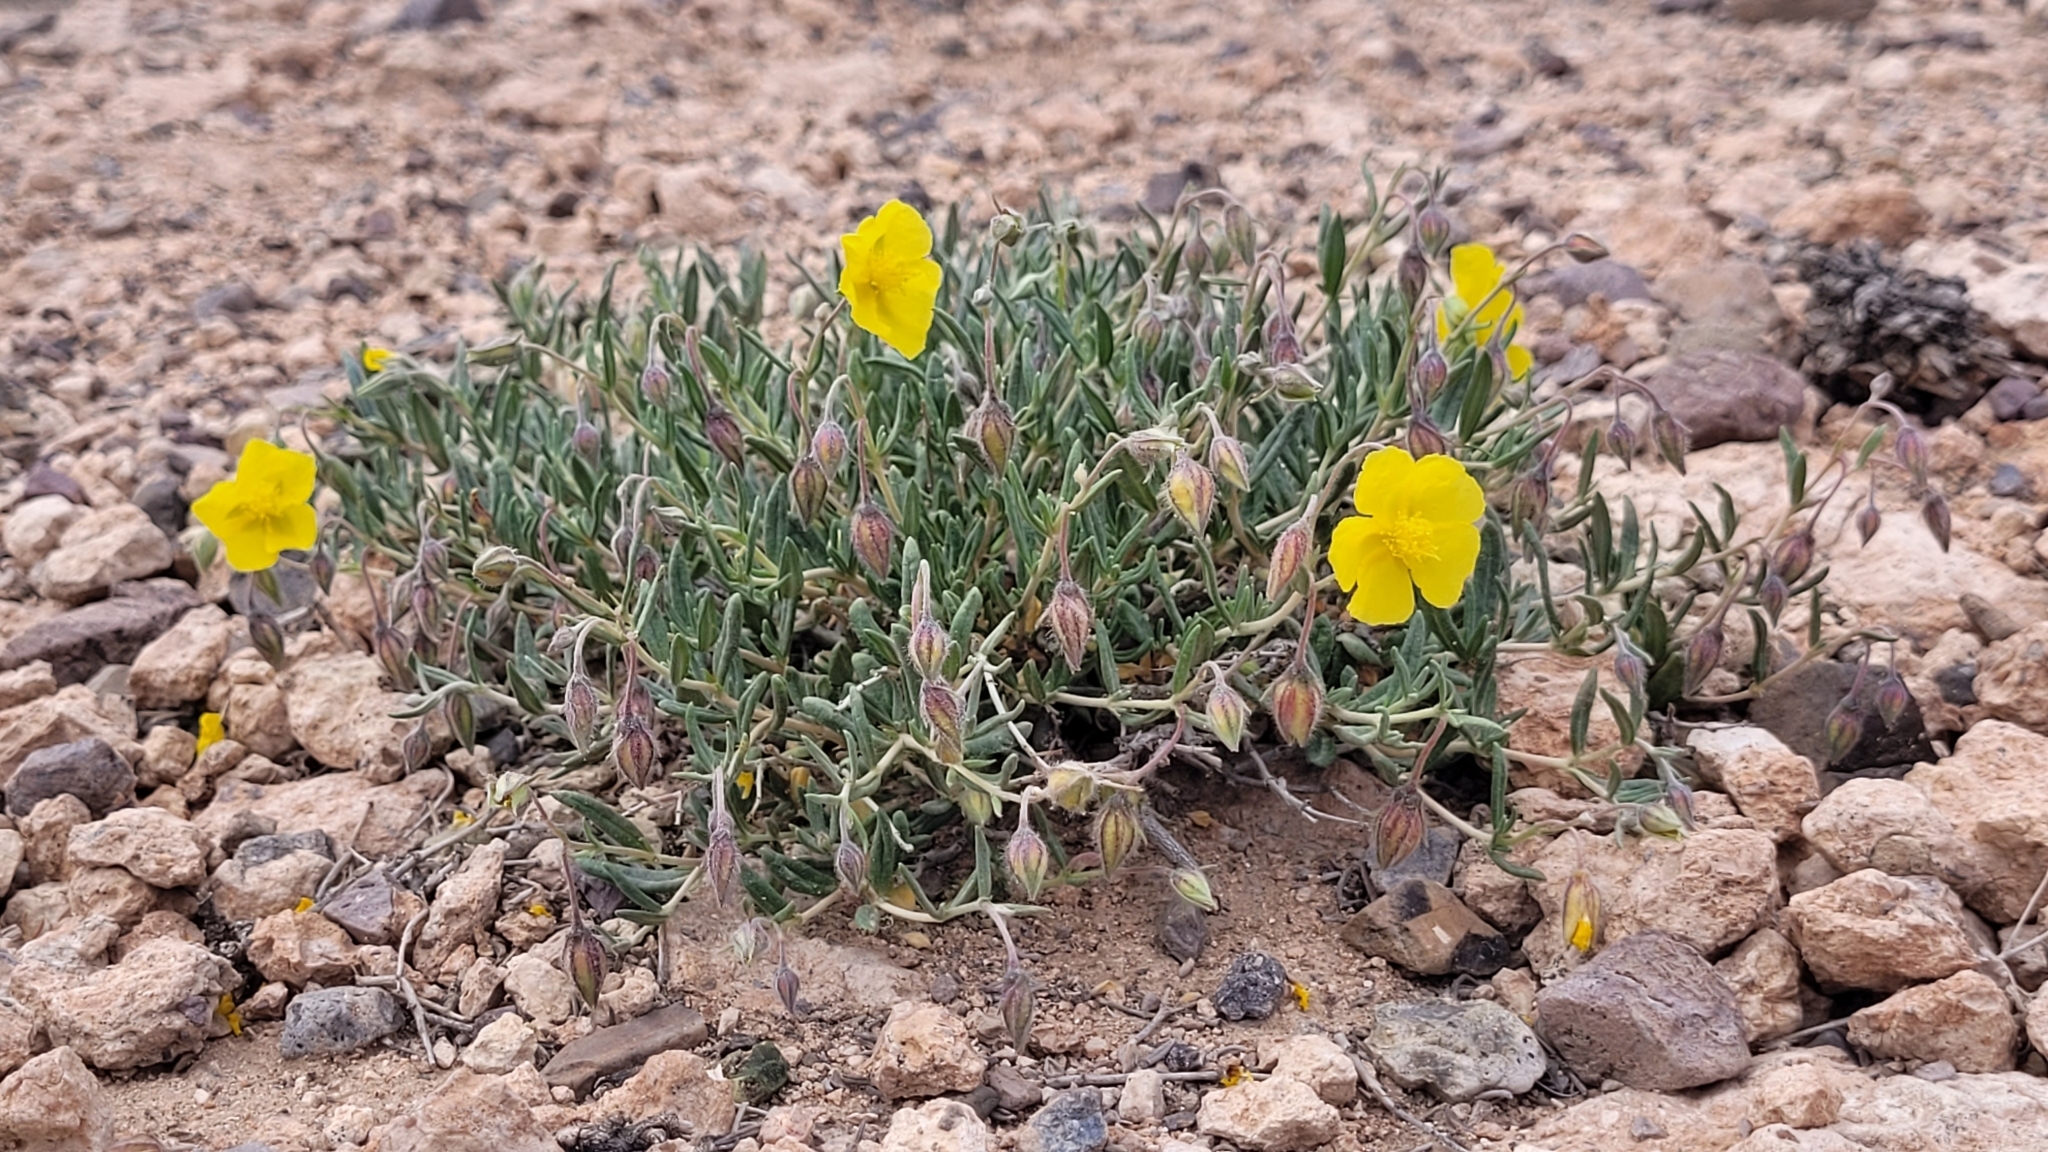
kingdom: Plantae
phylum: Tracheophyta
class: Magnoliopsida
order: Malvales
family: Cistaceae
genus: Helianthemum
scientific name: Helianthemum songaricum
